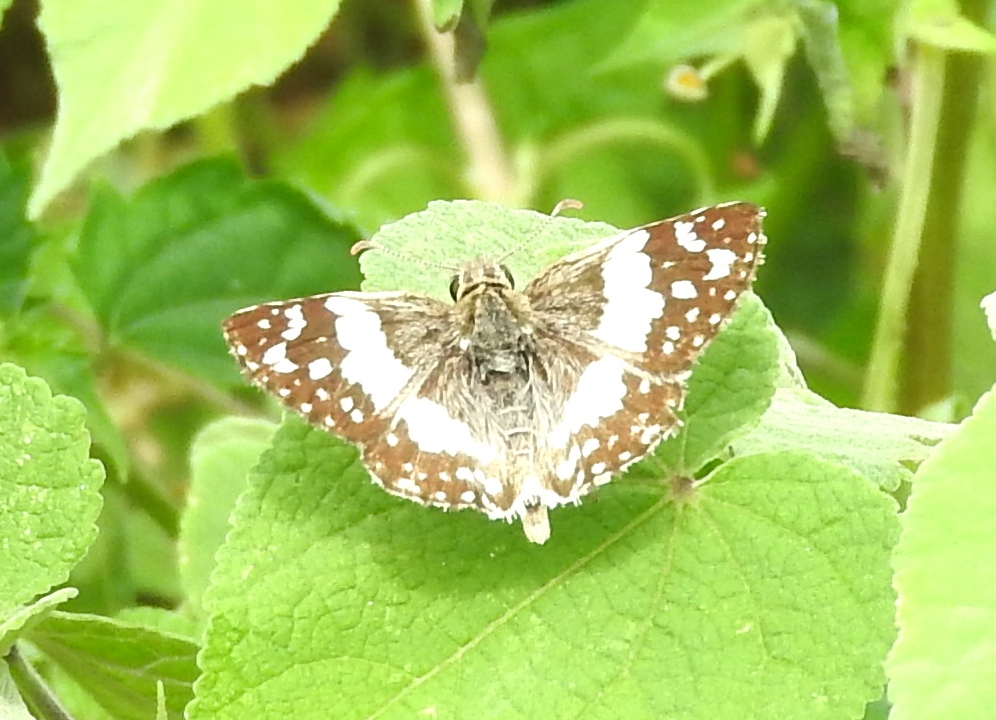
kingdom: Animalia
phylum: Arthropoda
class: Insecta
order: Lepidoptera
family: Hesperiidae
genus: Heliopyrgus
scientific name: Heliopyrgus domicella
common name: Erichson's white skipper
